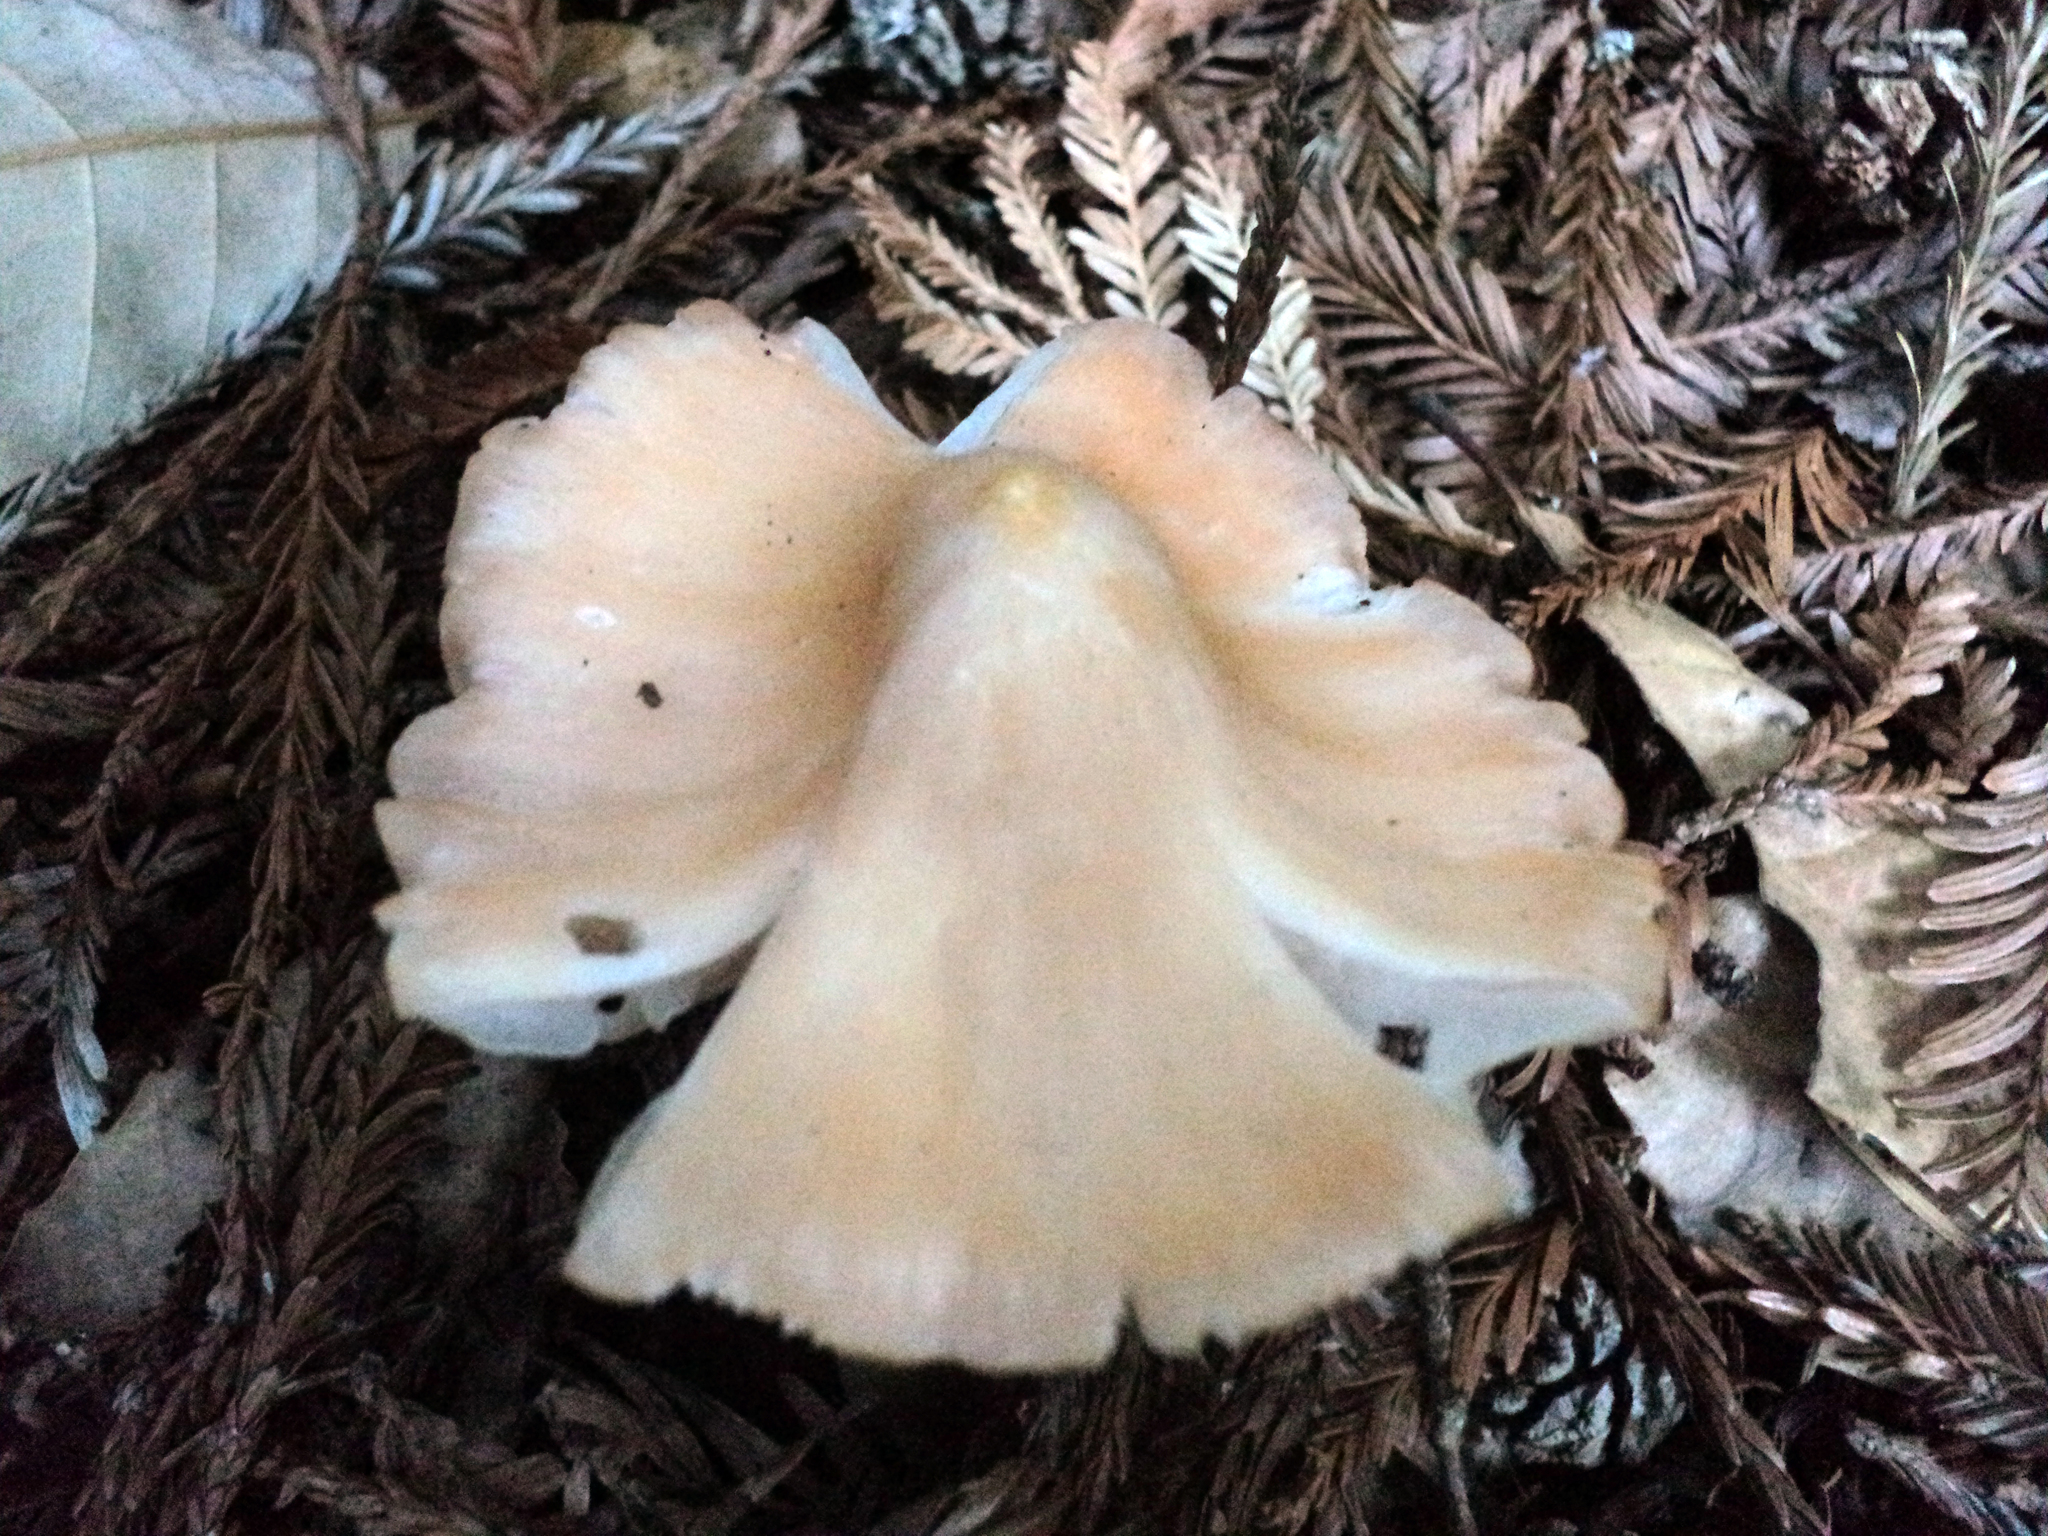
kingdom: Fungi
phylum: Basidiomycota
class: Agaricomycetes
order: Agaricales
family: Hygrophoraceae
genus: Porpolomopsis
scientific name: Porpolomopsis calyptriformis
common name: Pink waxcap
